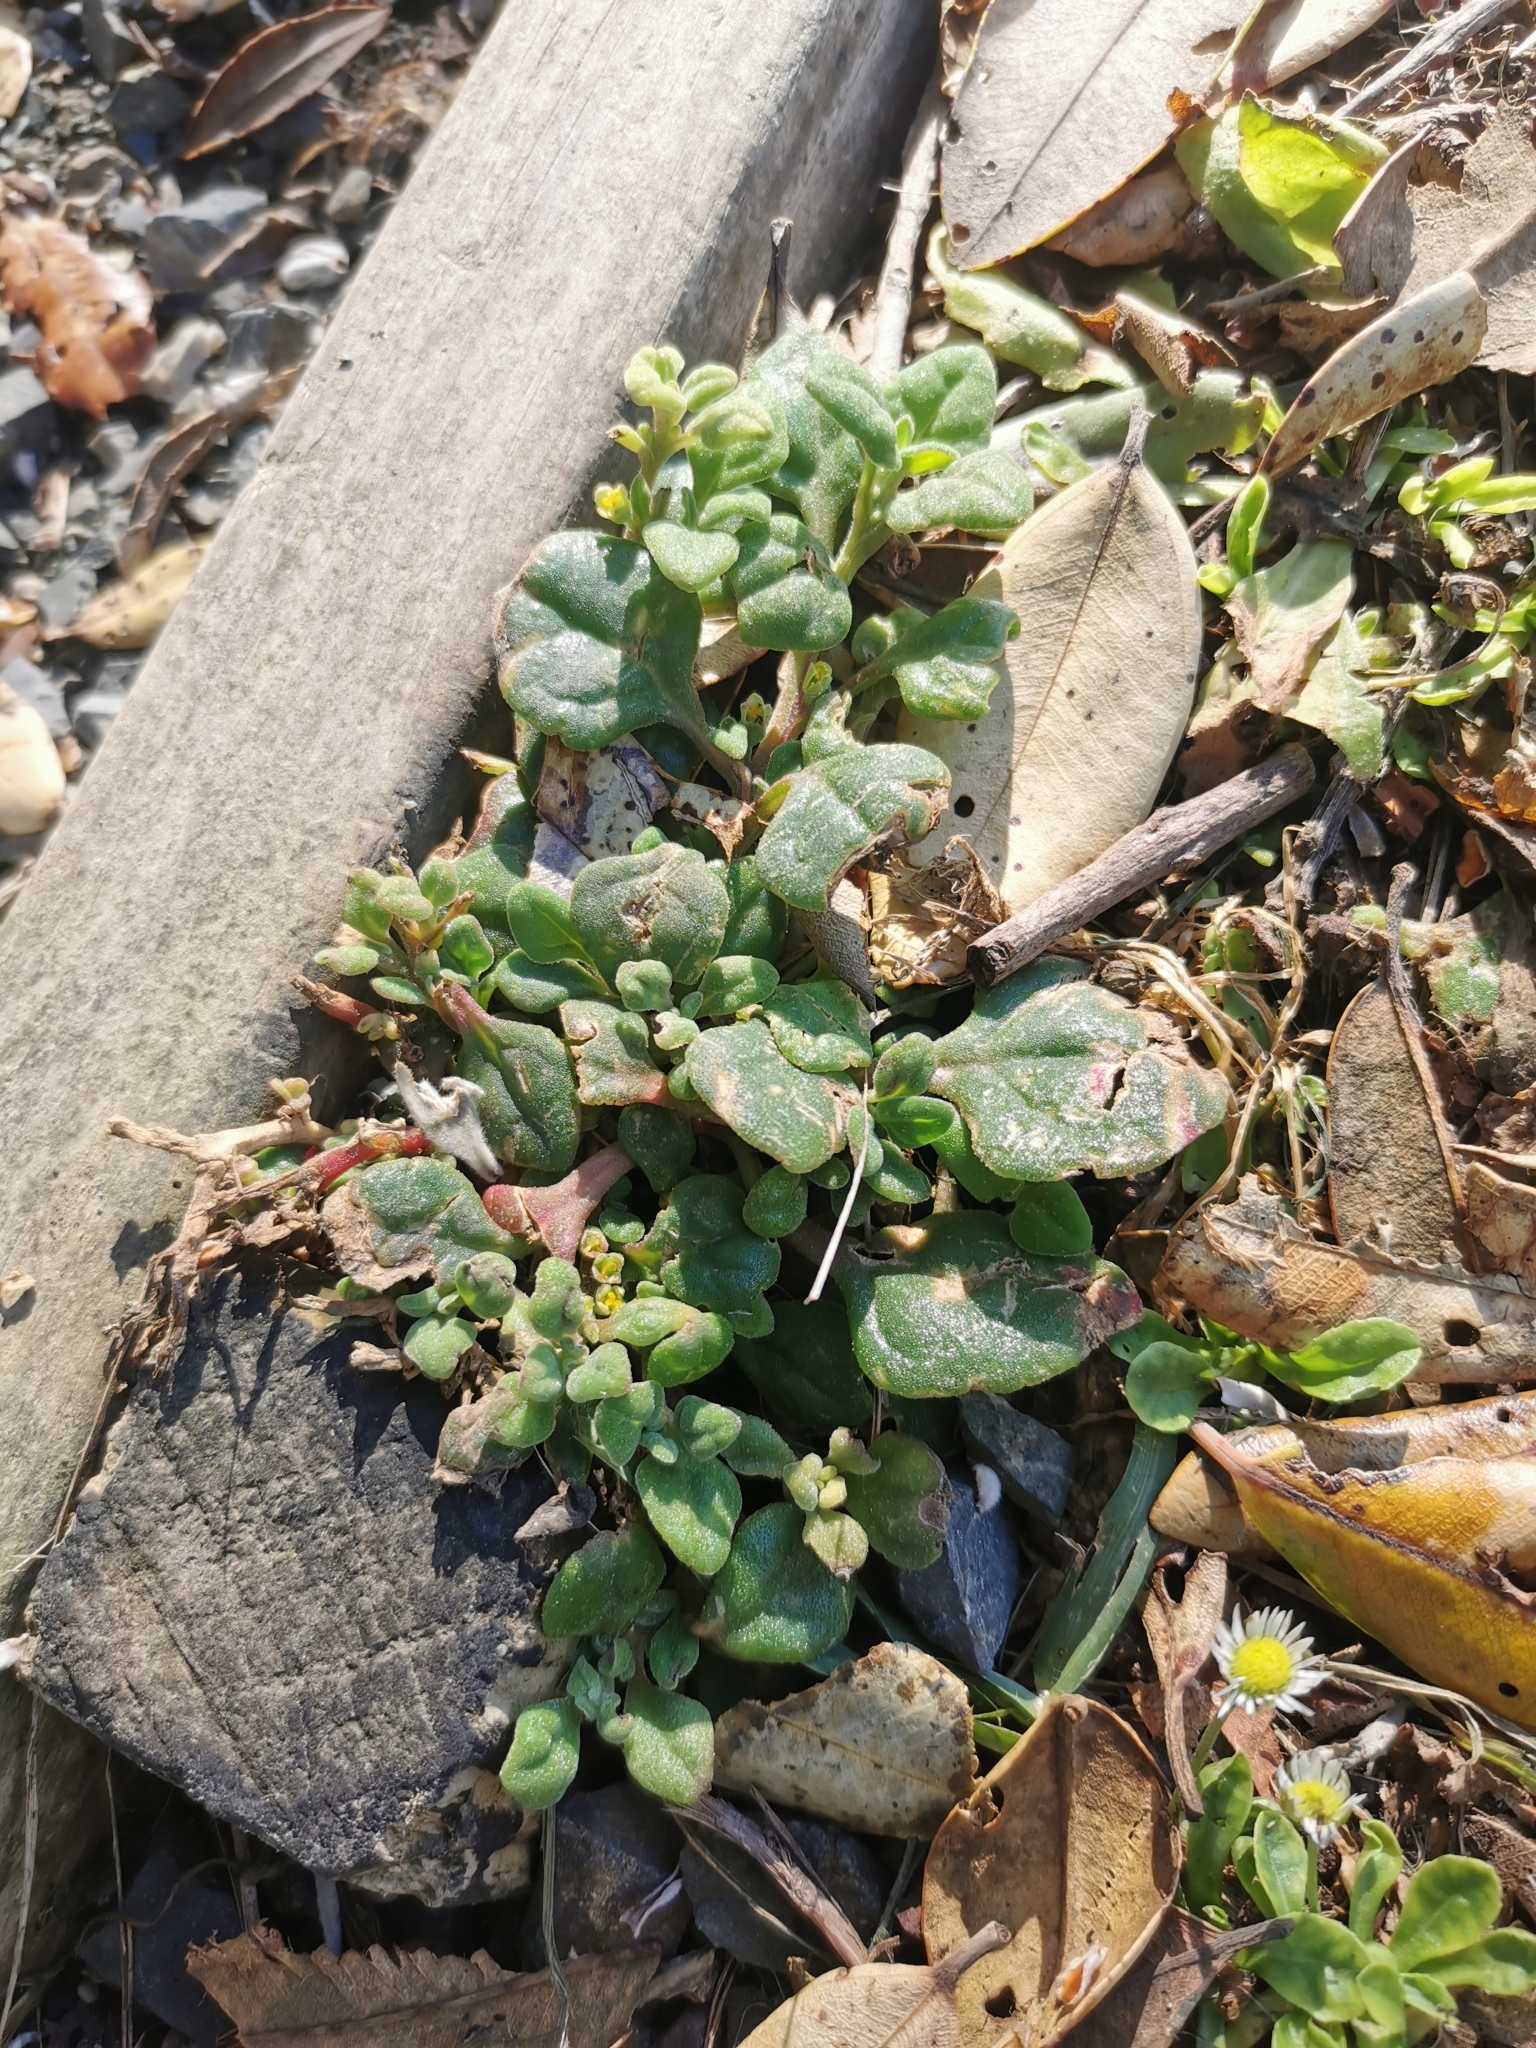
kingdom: Plantae
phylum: Tracheophyta
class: Magnoliopsida
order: Caryophyllales
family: Aizoaceae
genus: Tetragonia
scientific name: Tetragonia implexicoma
